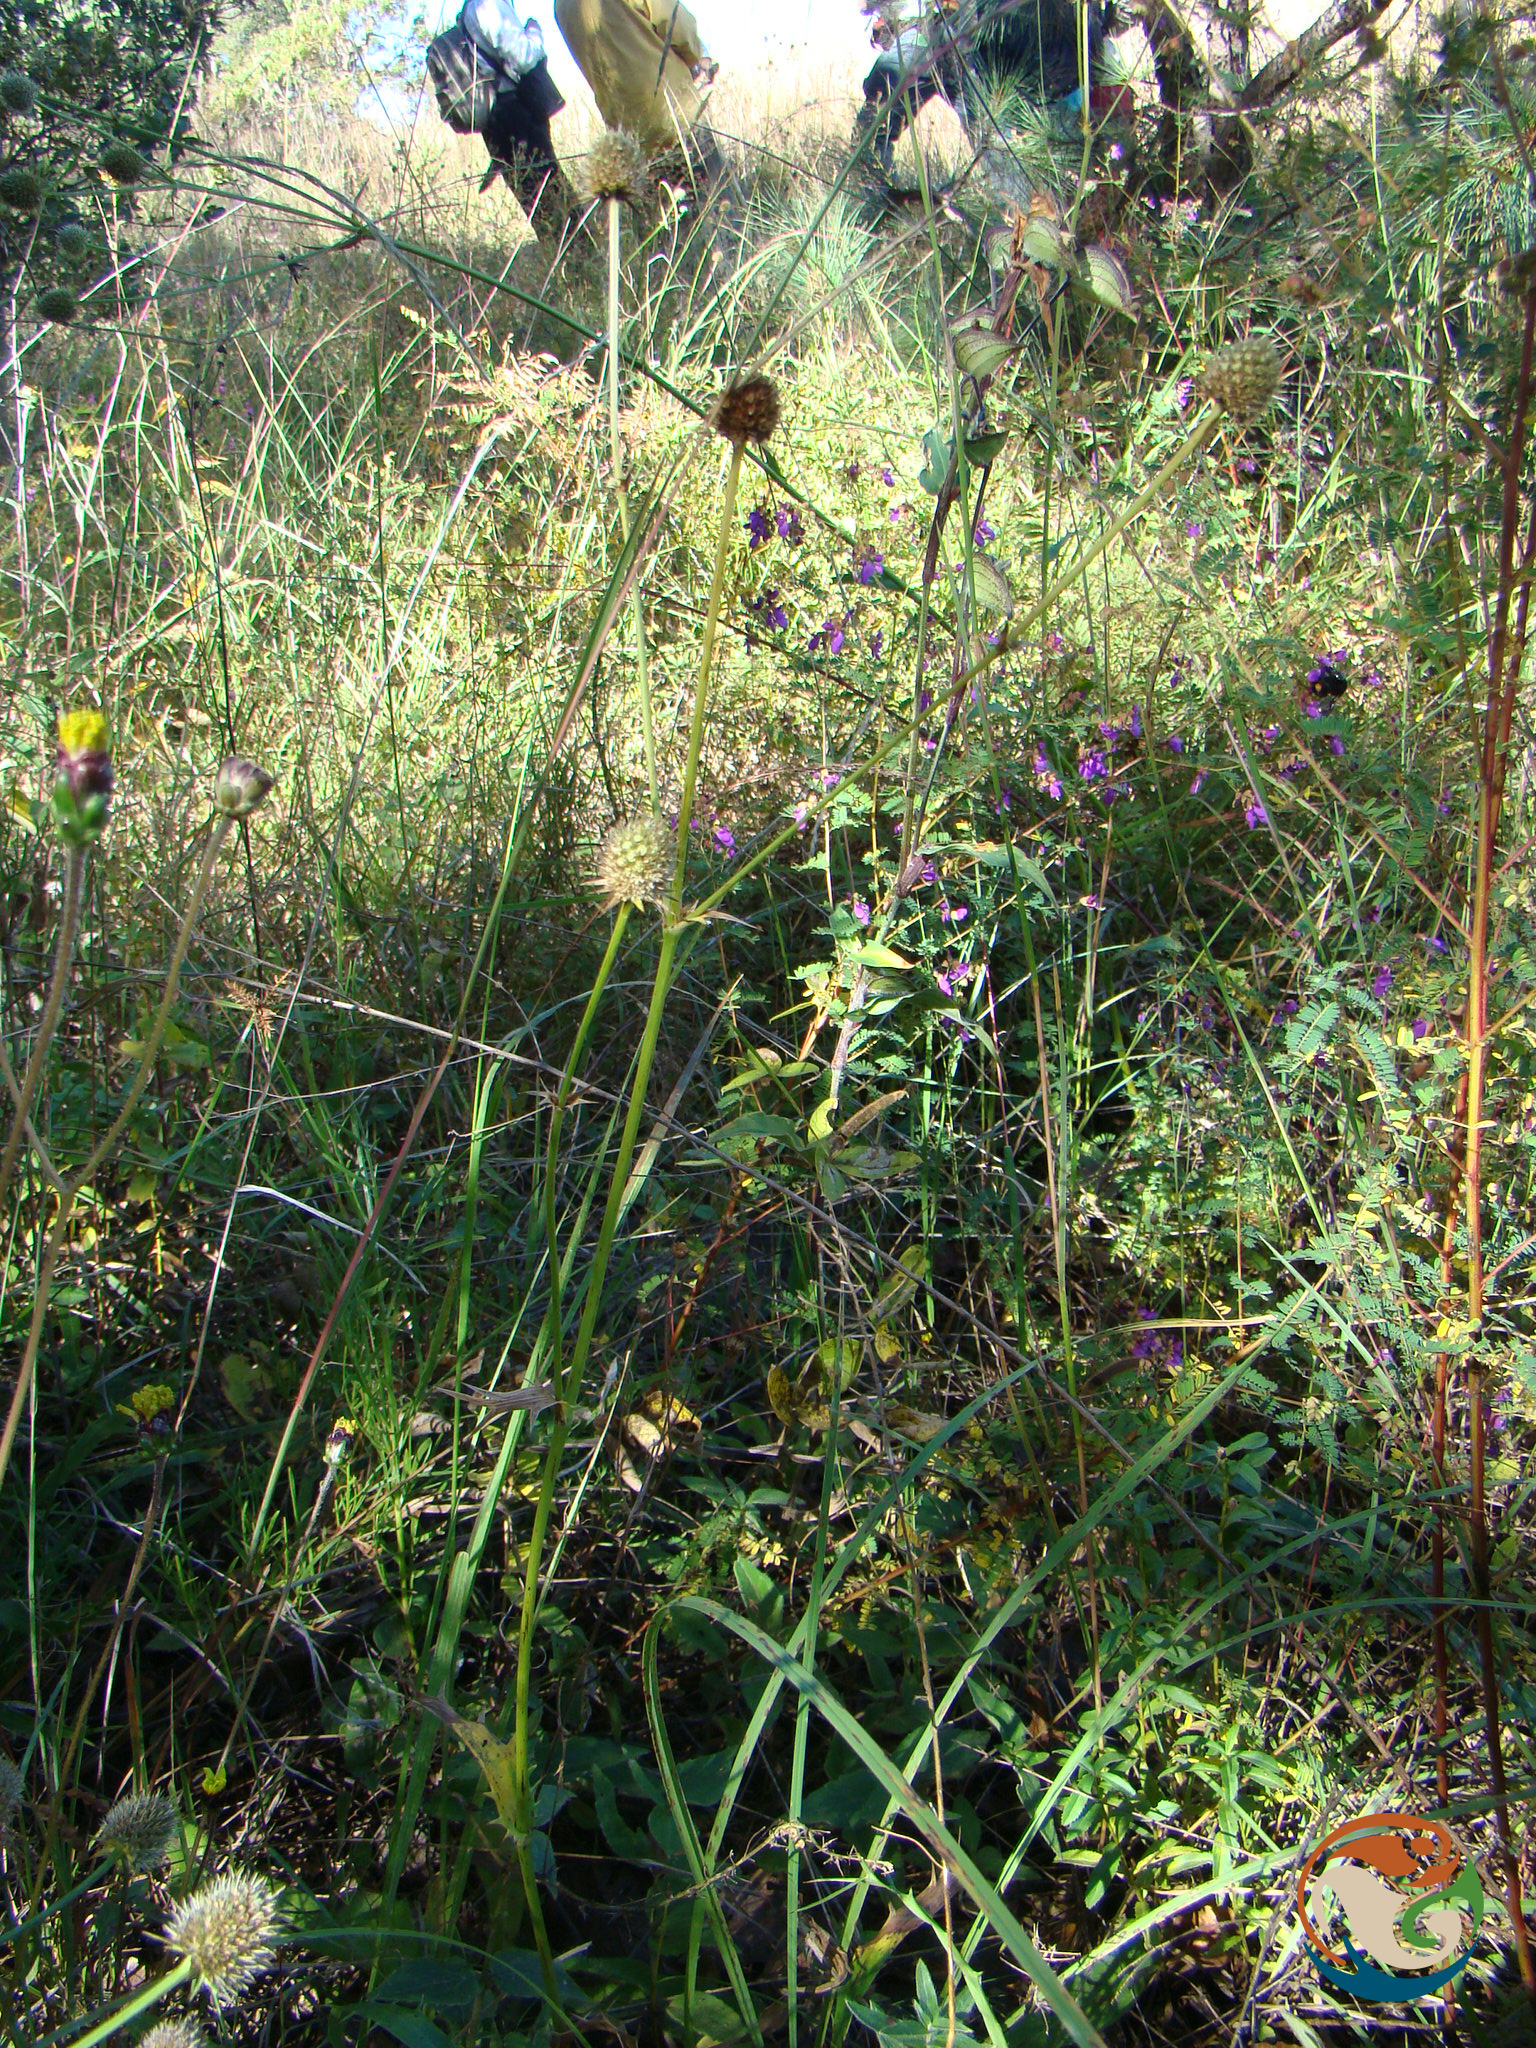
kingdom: Plantae
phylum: Tracheophyta
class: Magnoliopsida
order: Apiales
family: Apiaceae
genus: Eryngium
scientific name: Eryngium purpusii
